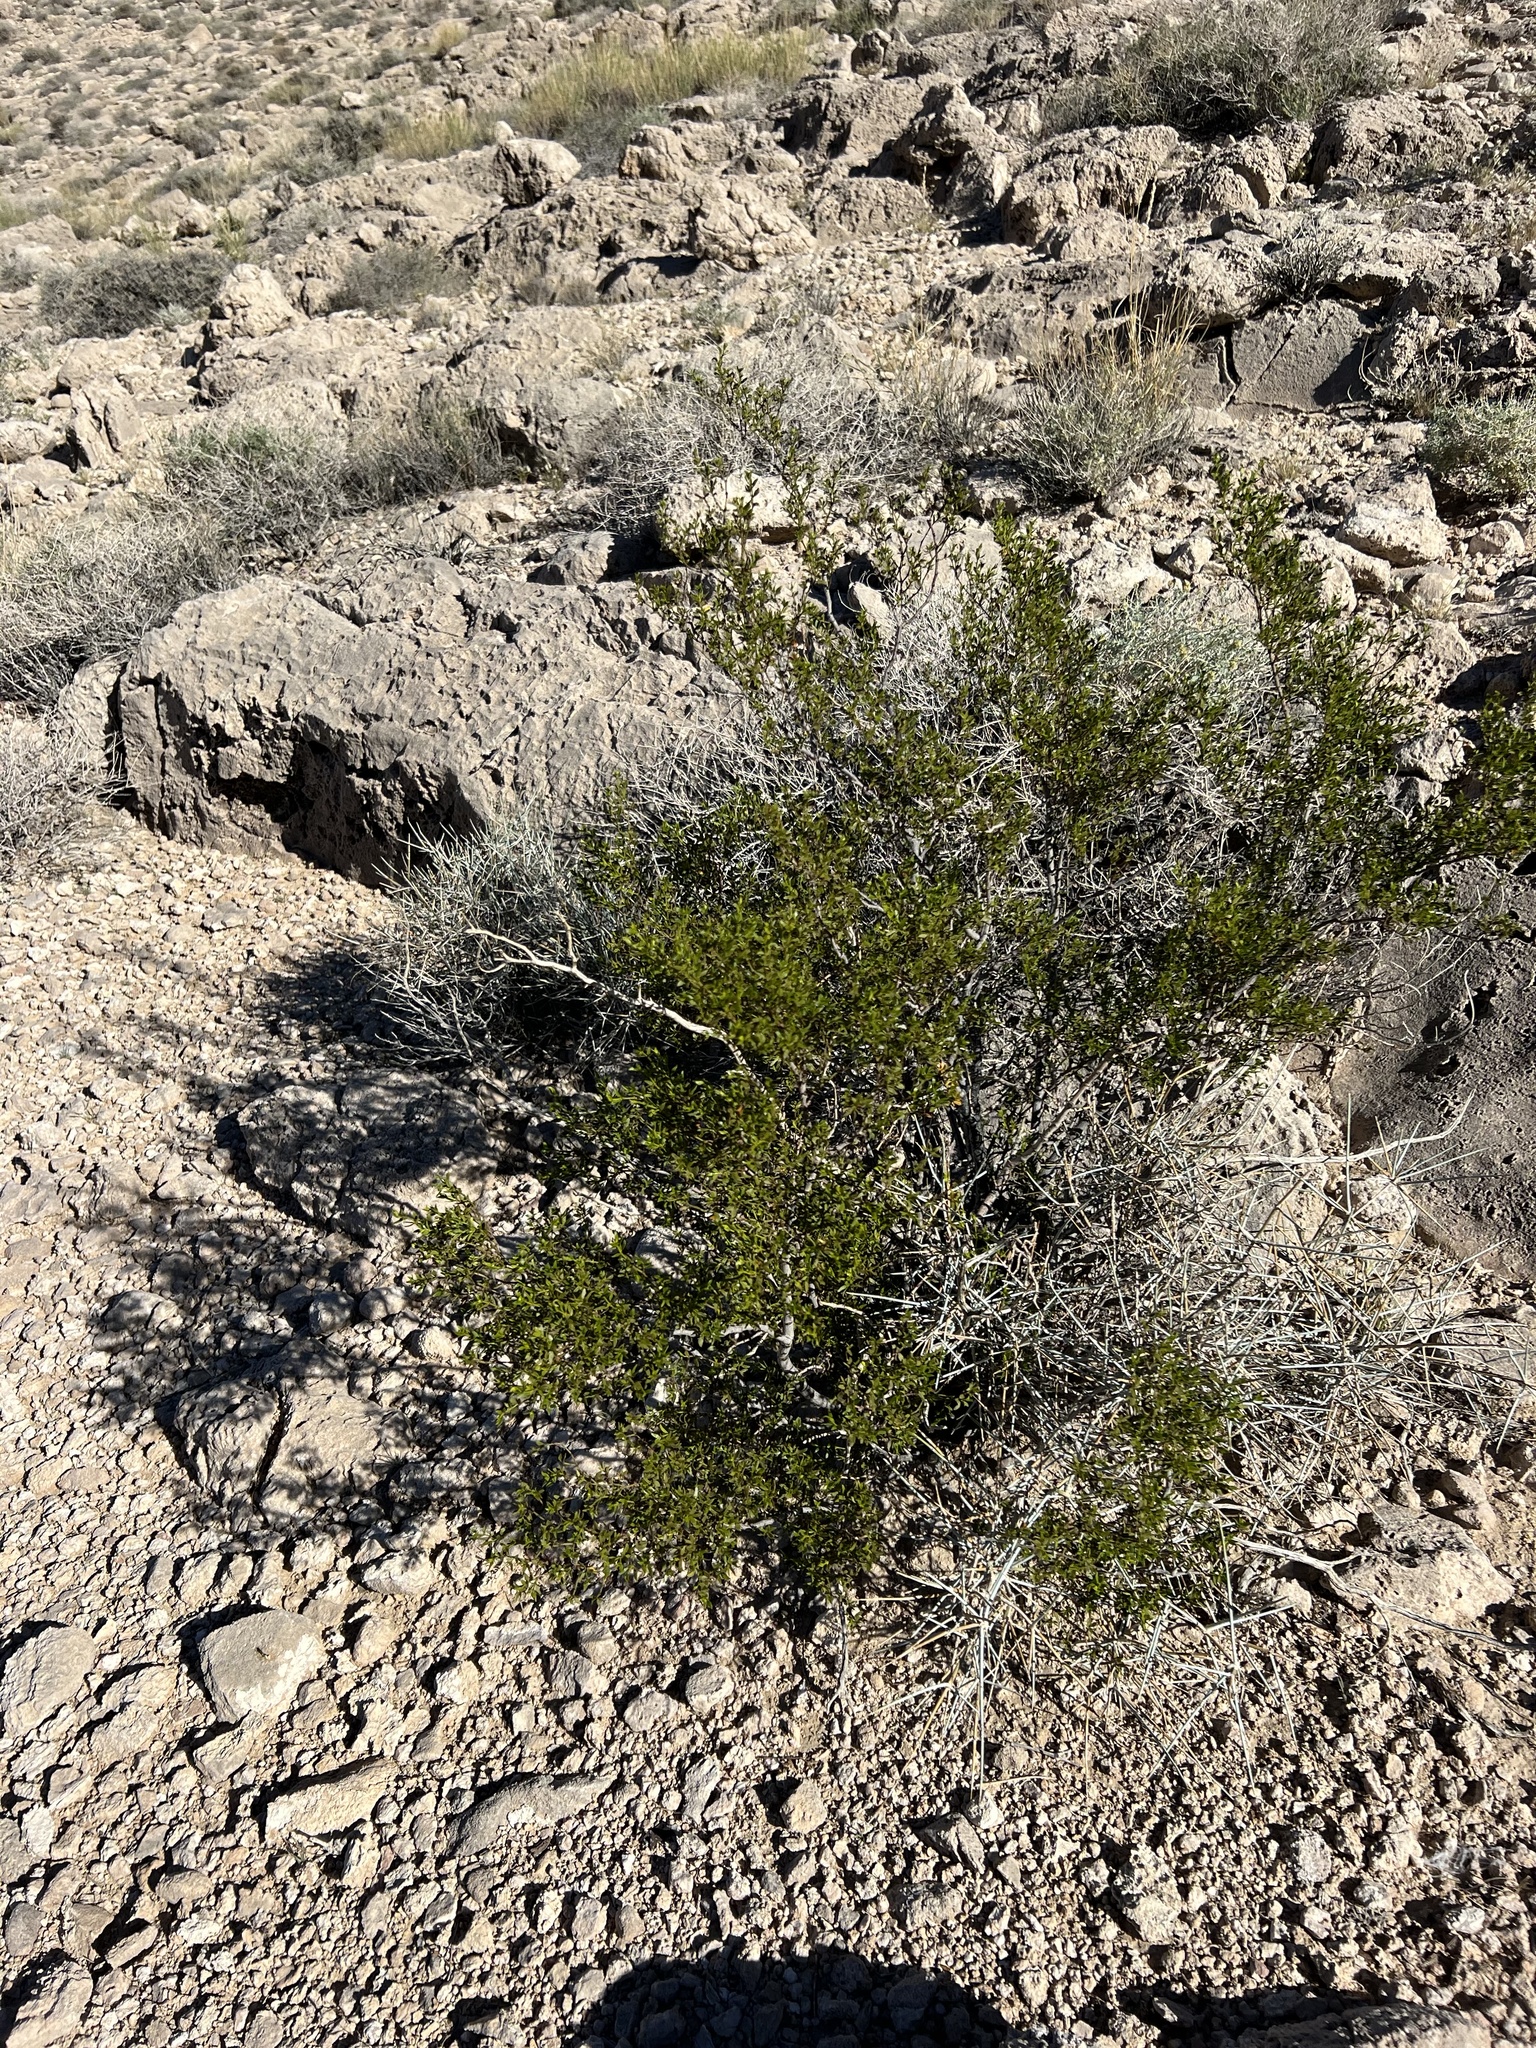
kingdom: Plantae
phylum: Tracheophyta
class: Magnoliopsida
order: Zygophyllales
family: Zygophyllaceae
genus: Larrea
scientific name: Larrea tridentata
